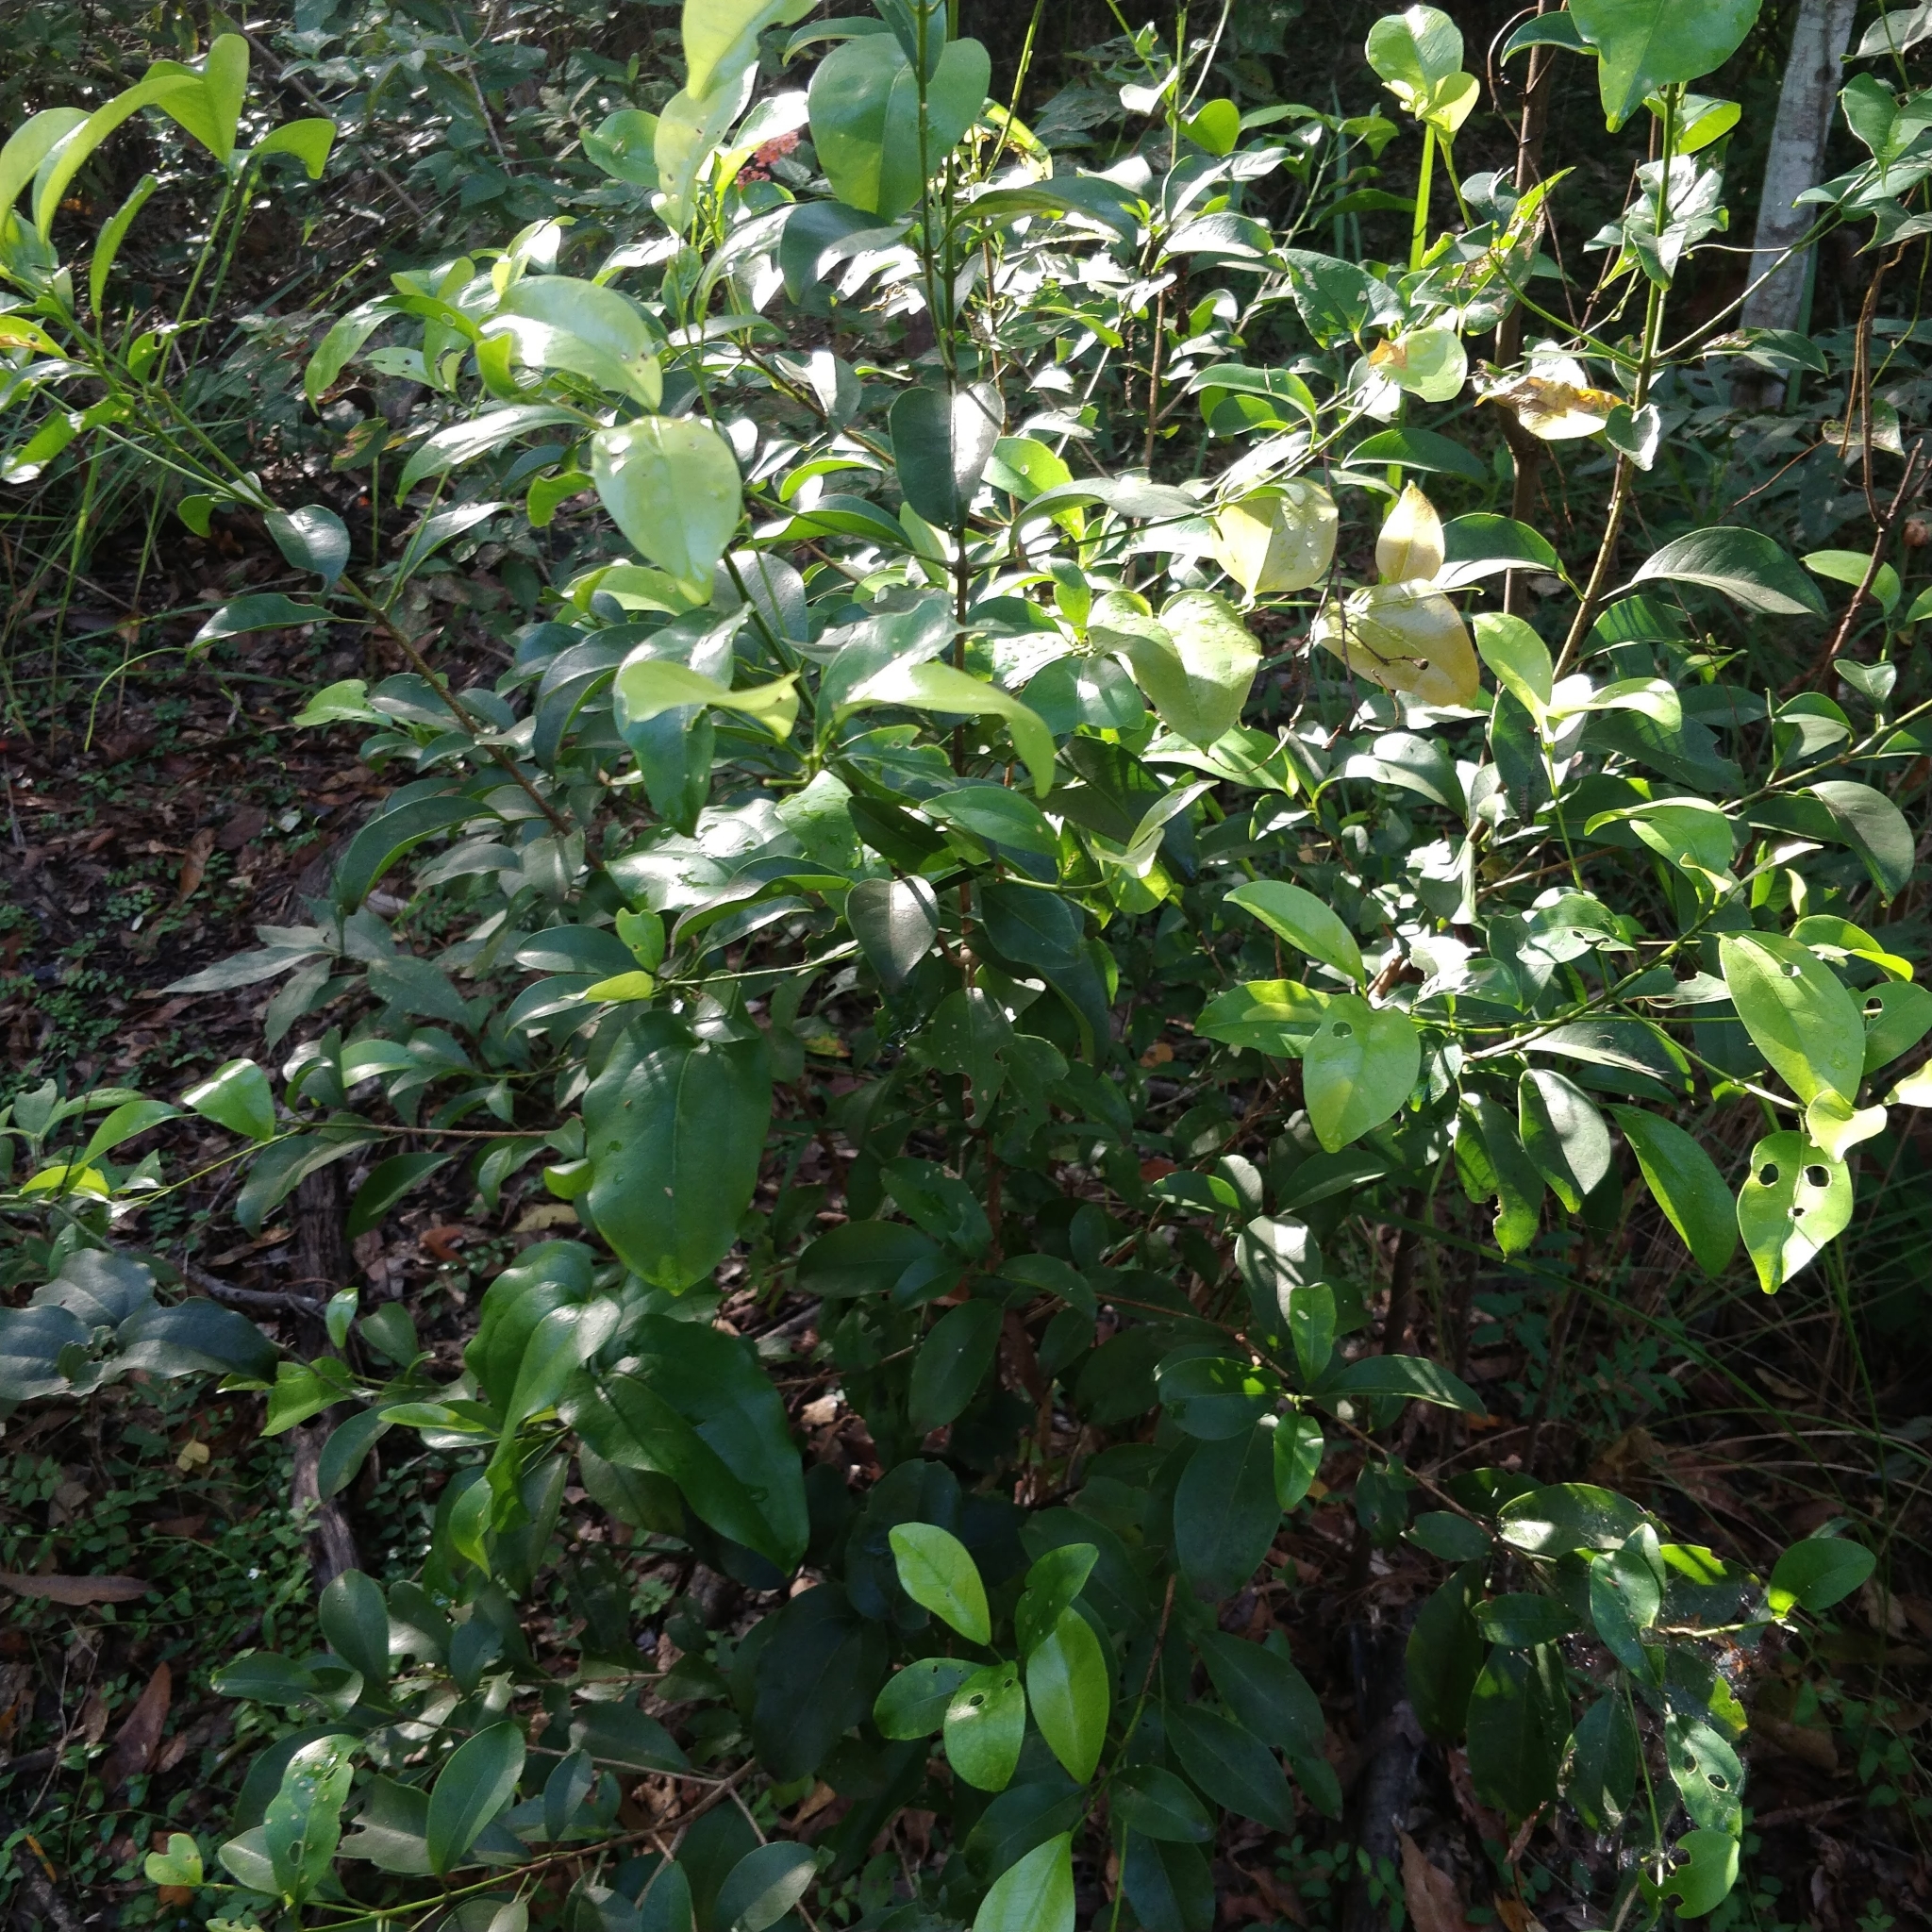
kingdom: Plantae
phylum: Tracheophyta
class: Magnoliopsida
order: Sapindales
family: Rutaceae
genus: Acronychia
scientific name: Acronychia laevis
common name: Hard aspen
